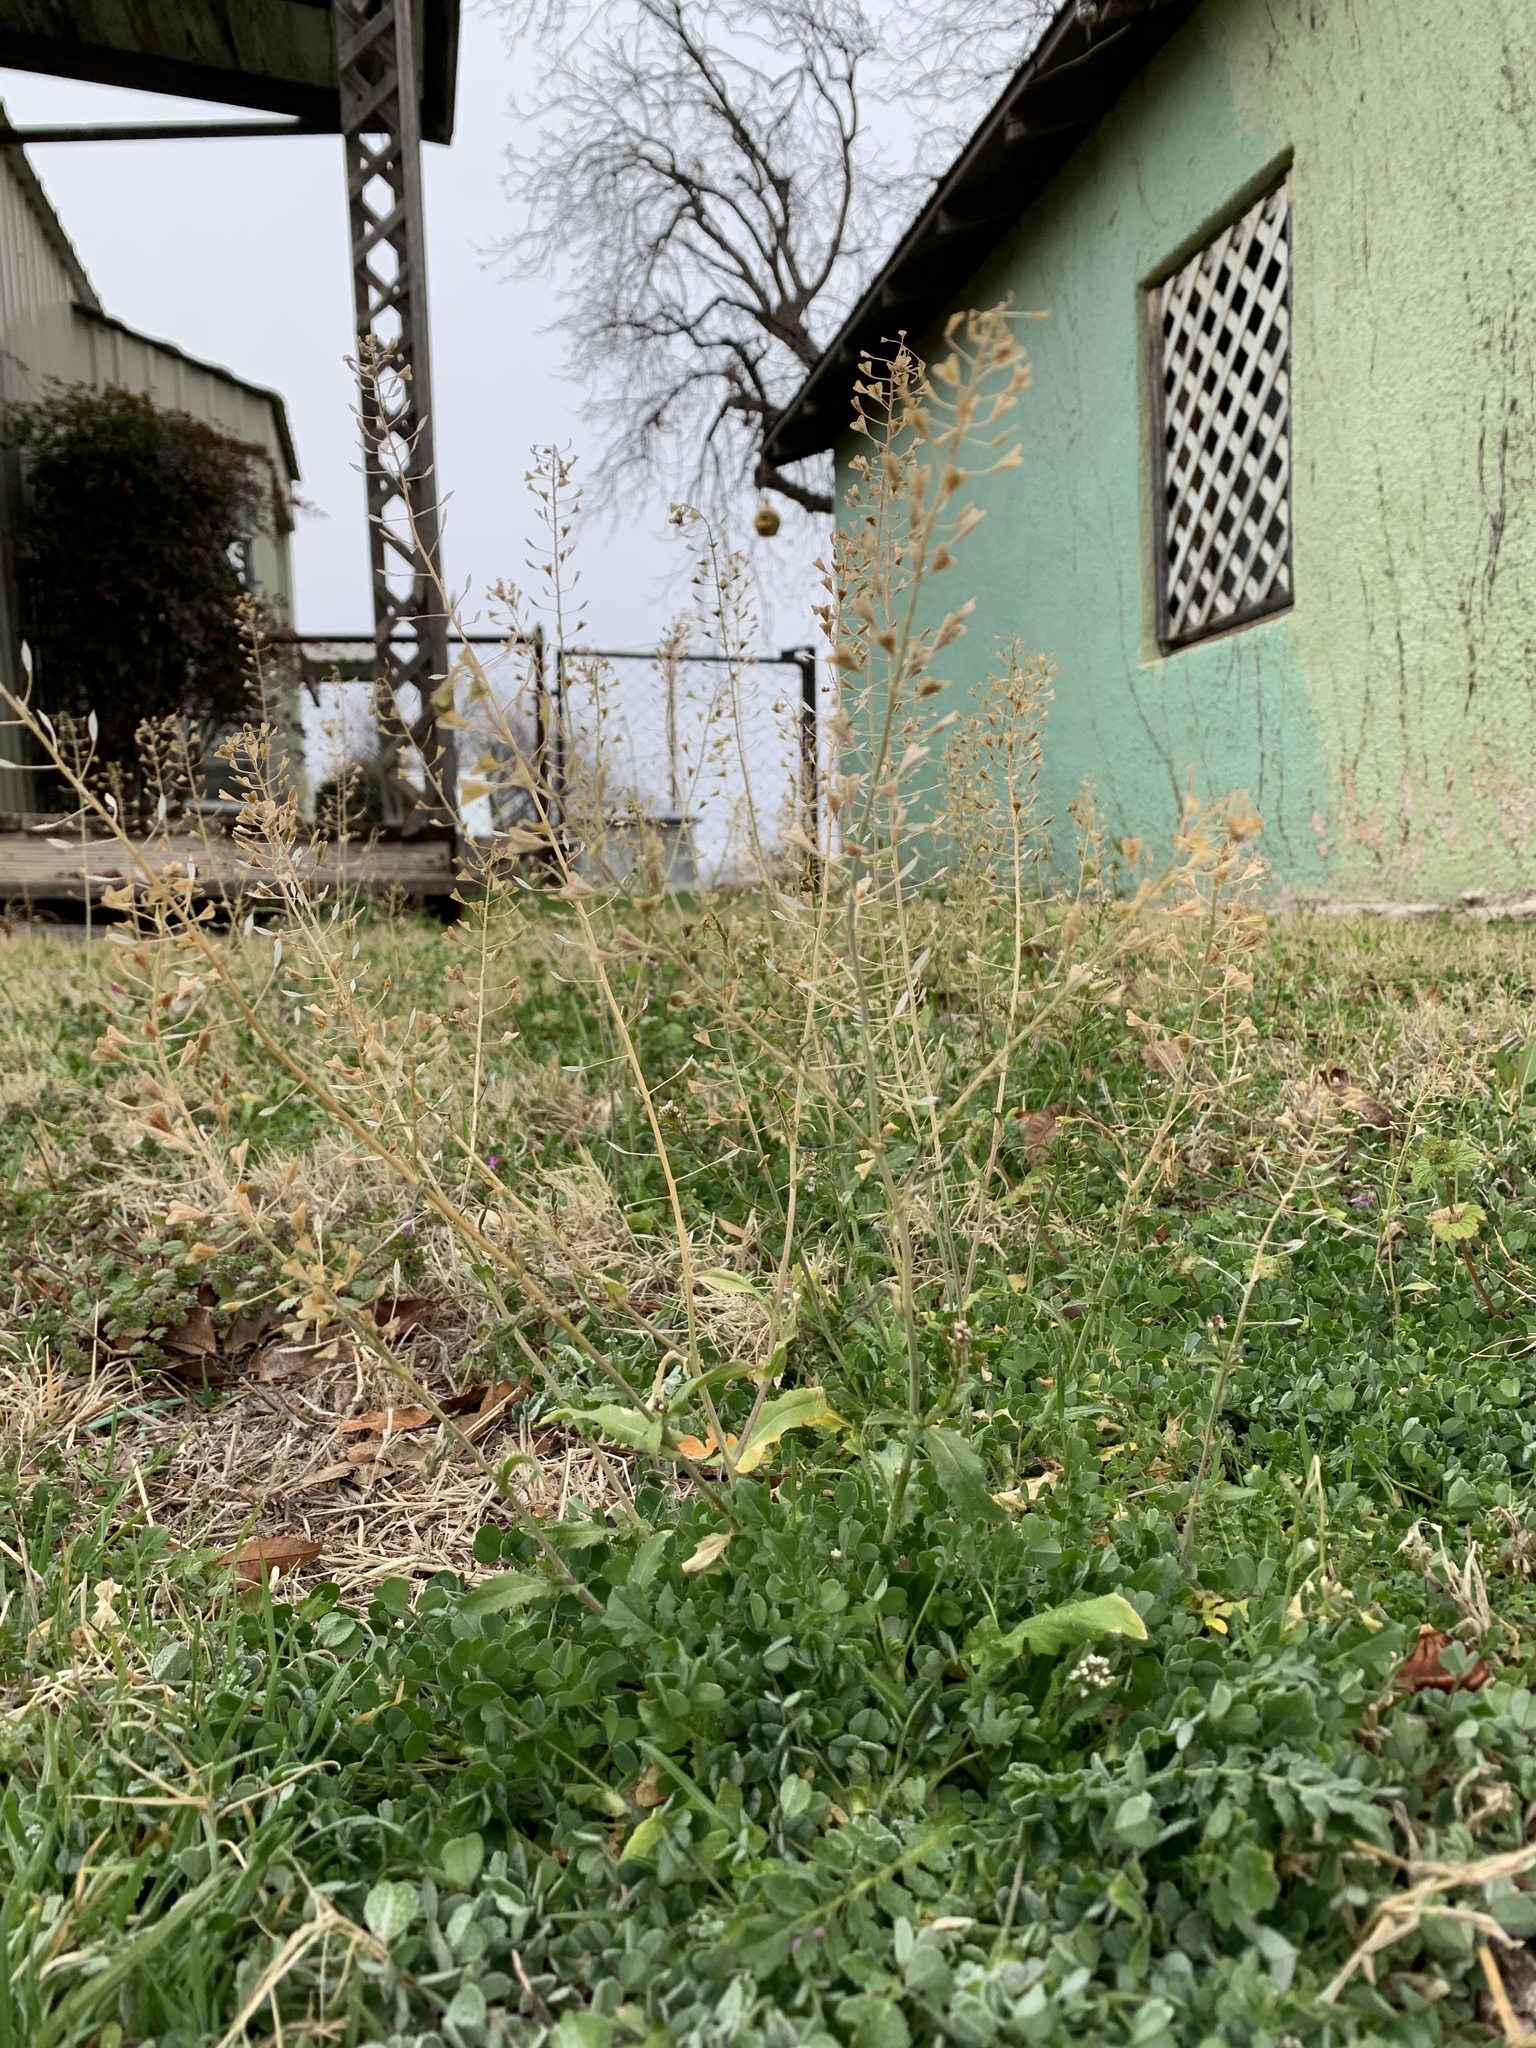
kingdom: Plantae
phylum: Tracheophyta
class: Magnoliopsida
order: Brassicales
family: Brassicaceae
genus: Capsella
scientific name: Capsella bursa-pastoris
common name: Shepherd's purse
